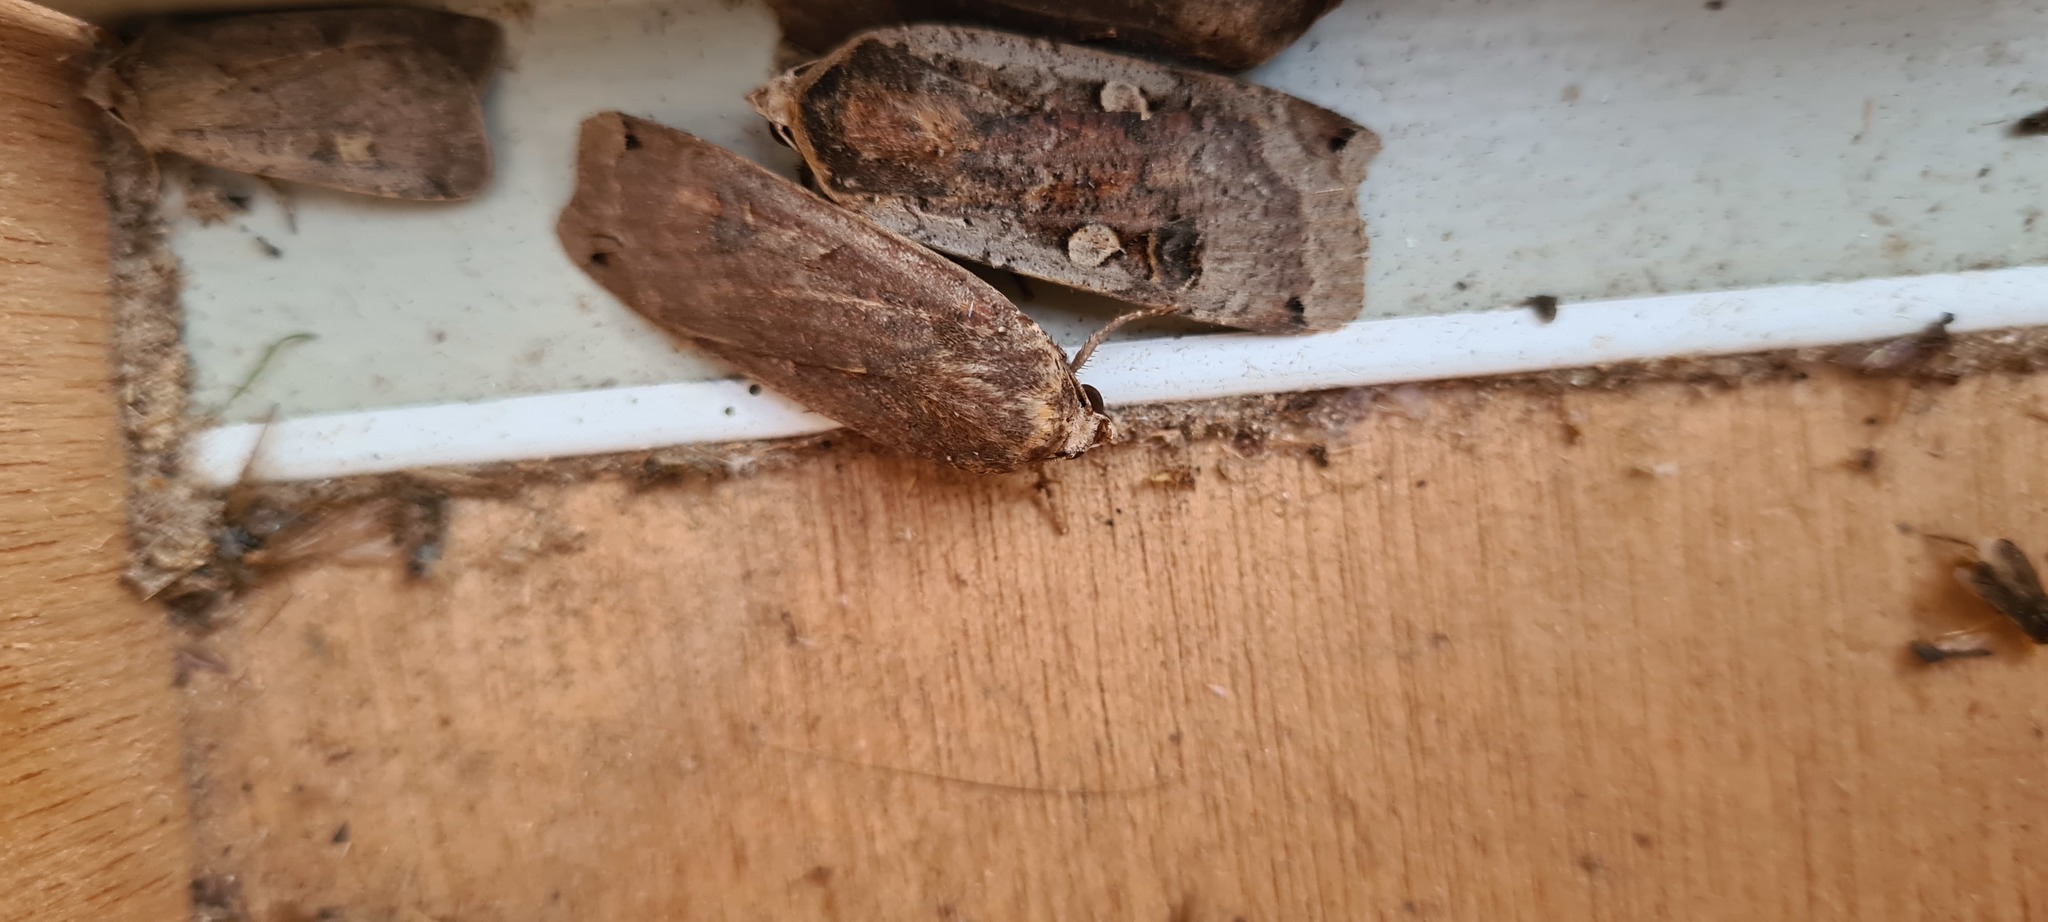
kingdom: Animalia
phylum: Arthropoda
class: Insecta
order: Lepidoptera
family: Noctuidae
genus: Noctua
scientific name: Noctua pronuba
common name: Large yellow underwing
